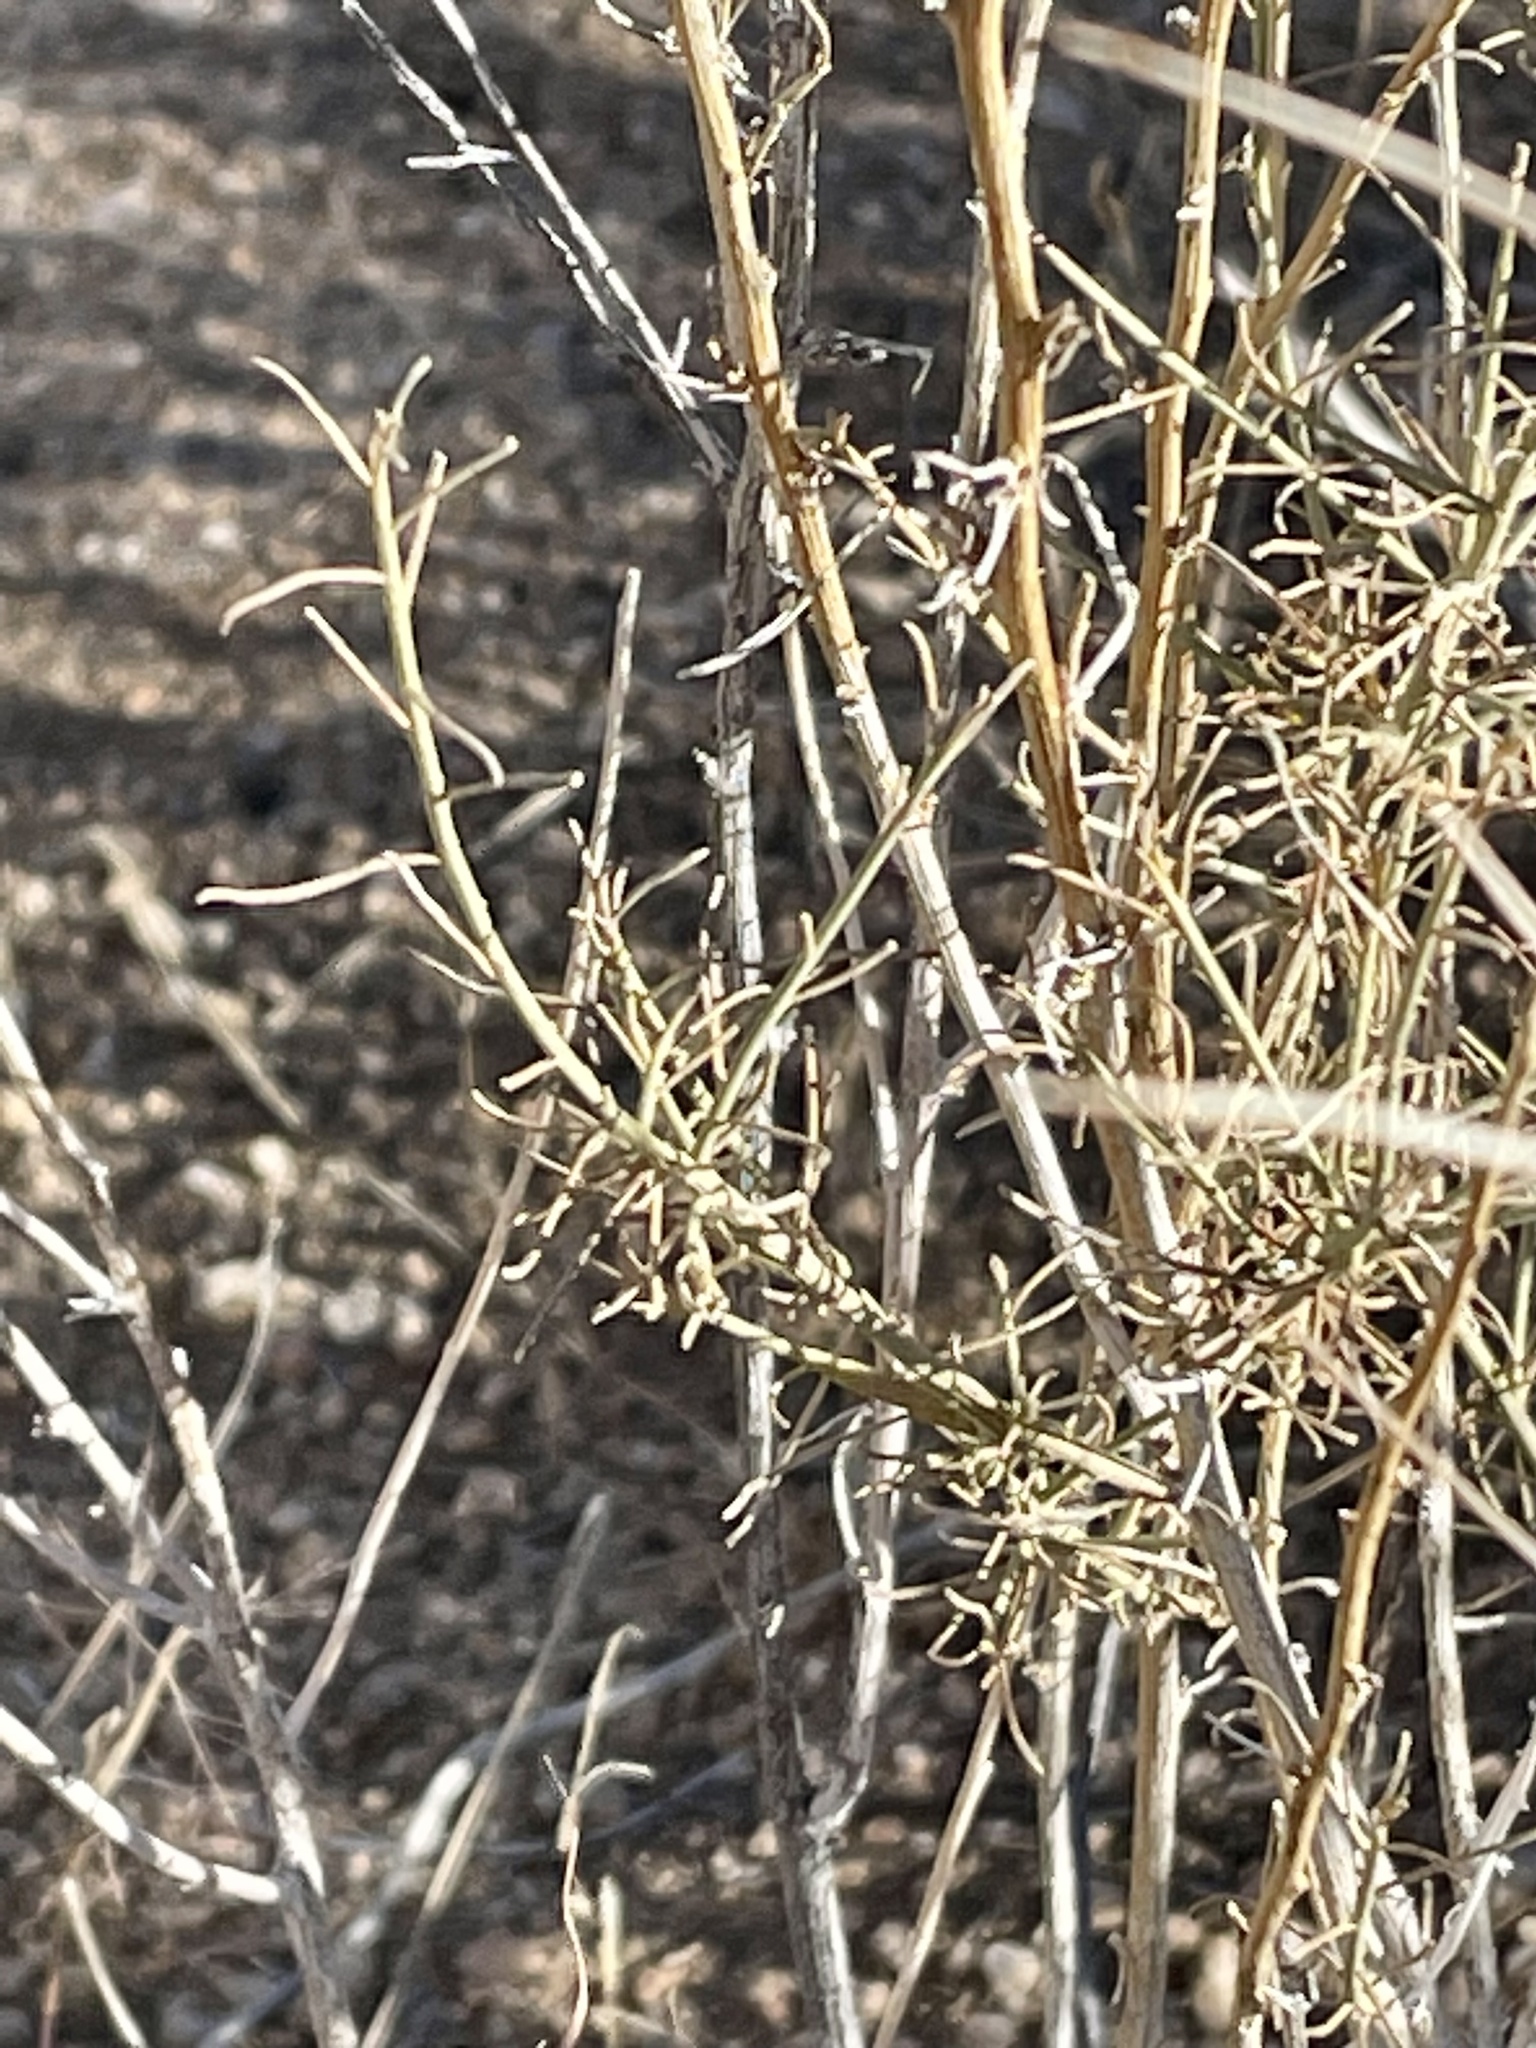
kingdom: Plantae
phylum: Tracheophyta
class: Magnoliopsida
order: Asterales
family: Asteraceae
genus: Ambrosia
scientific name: Ambrosia salsola
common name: Burrobrush
